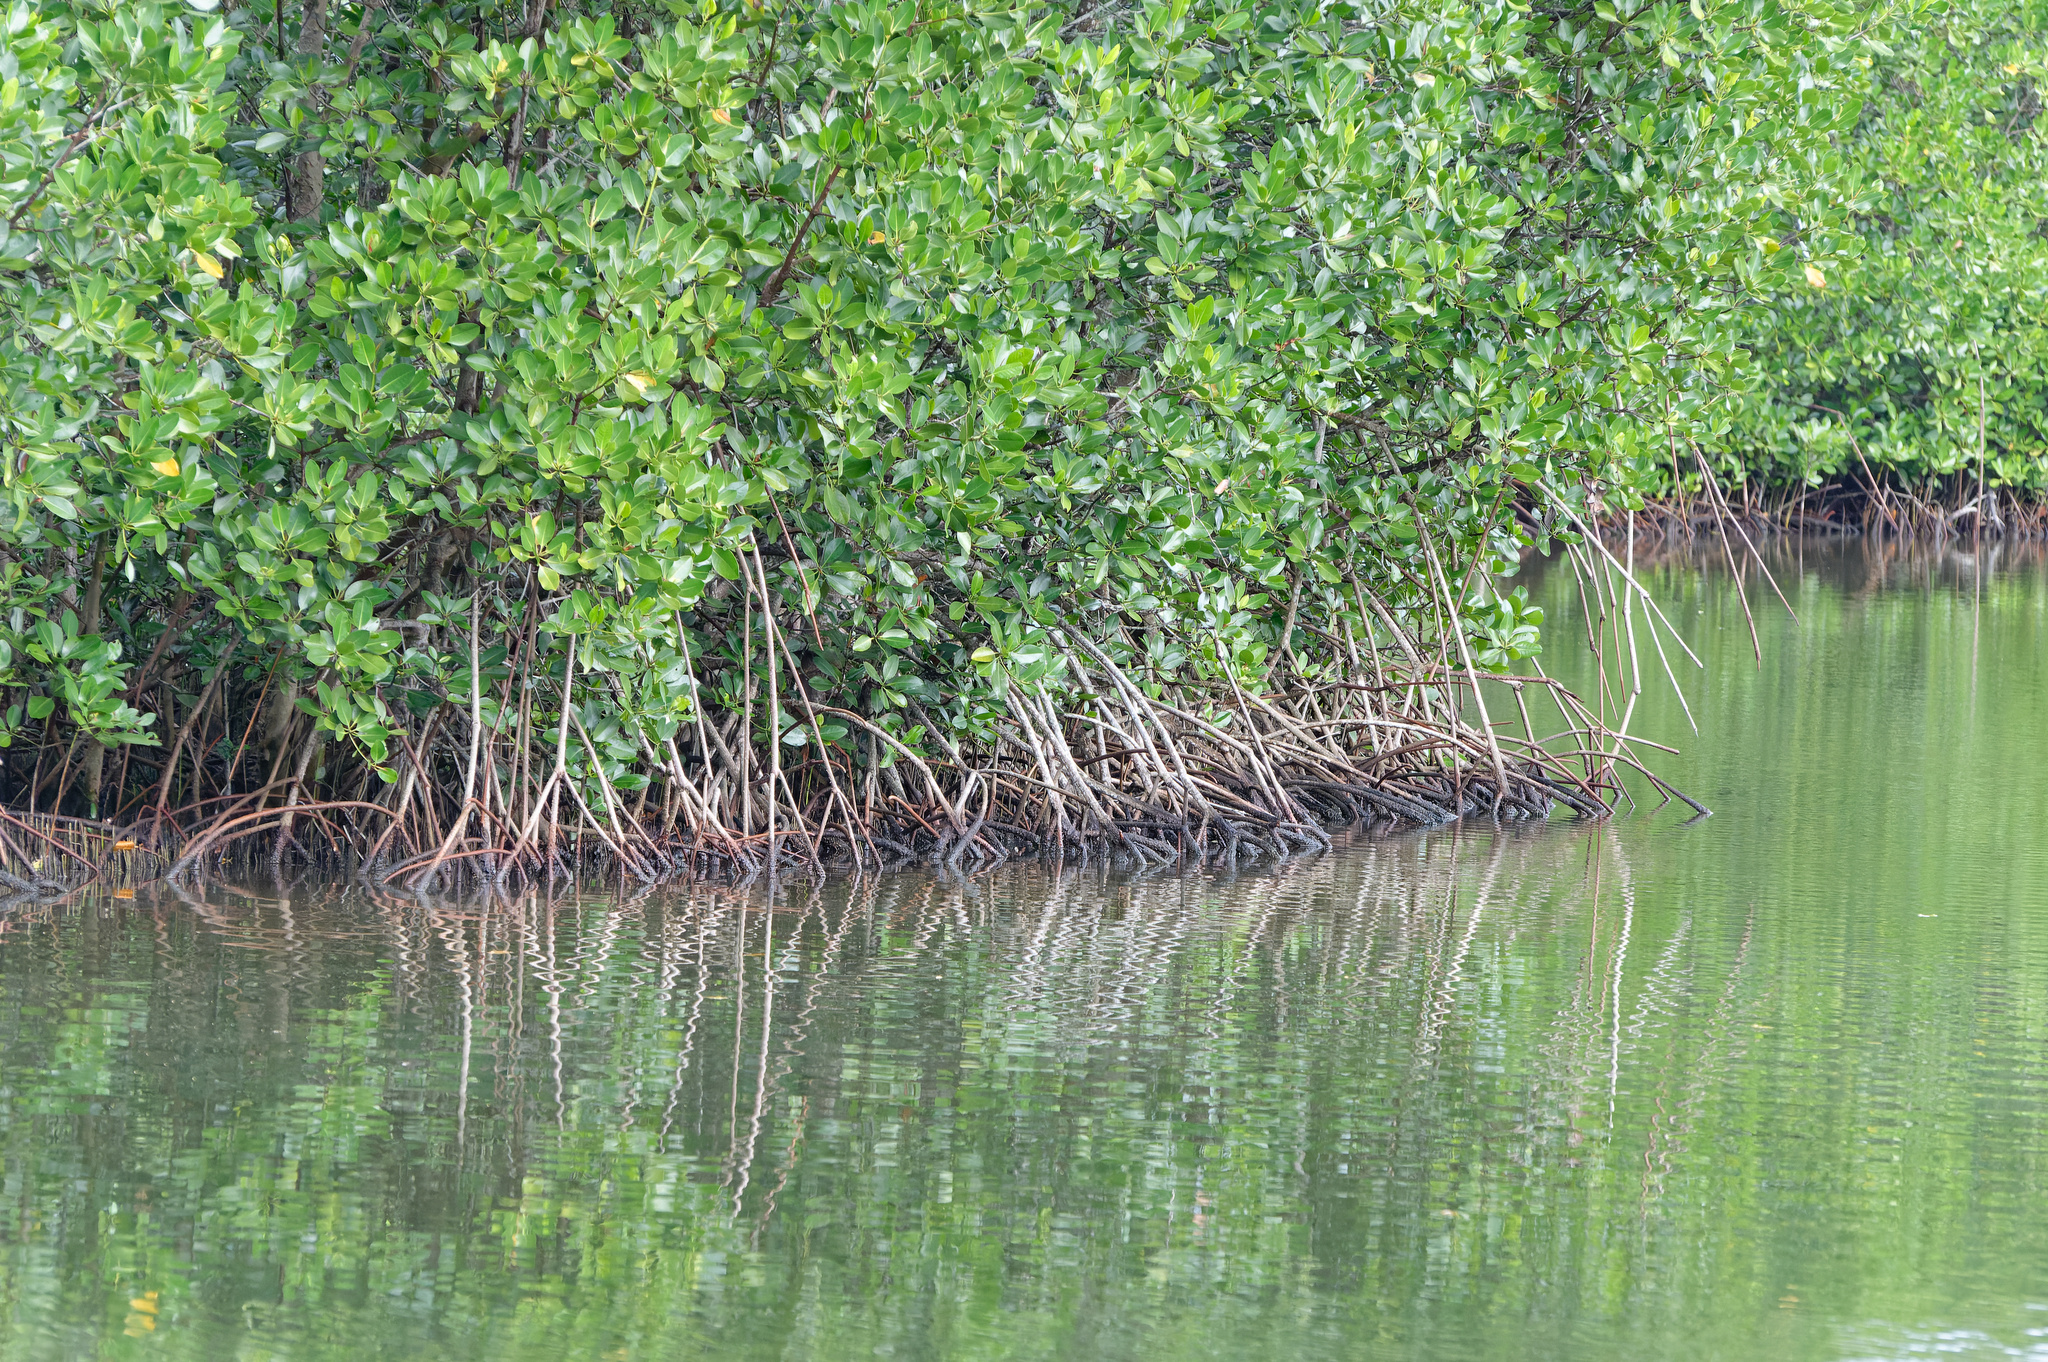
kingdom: Plantae
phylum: Tracheophyta
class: Magnoliopsida
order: Malpighiales
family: Rhizophoraceae
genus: Rhizophora
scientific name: Rhizophora stylosa
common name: Red mangrove
